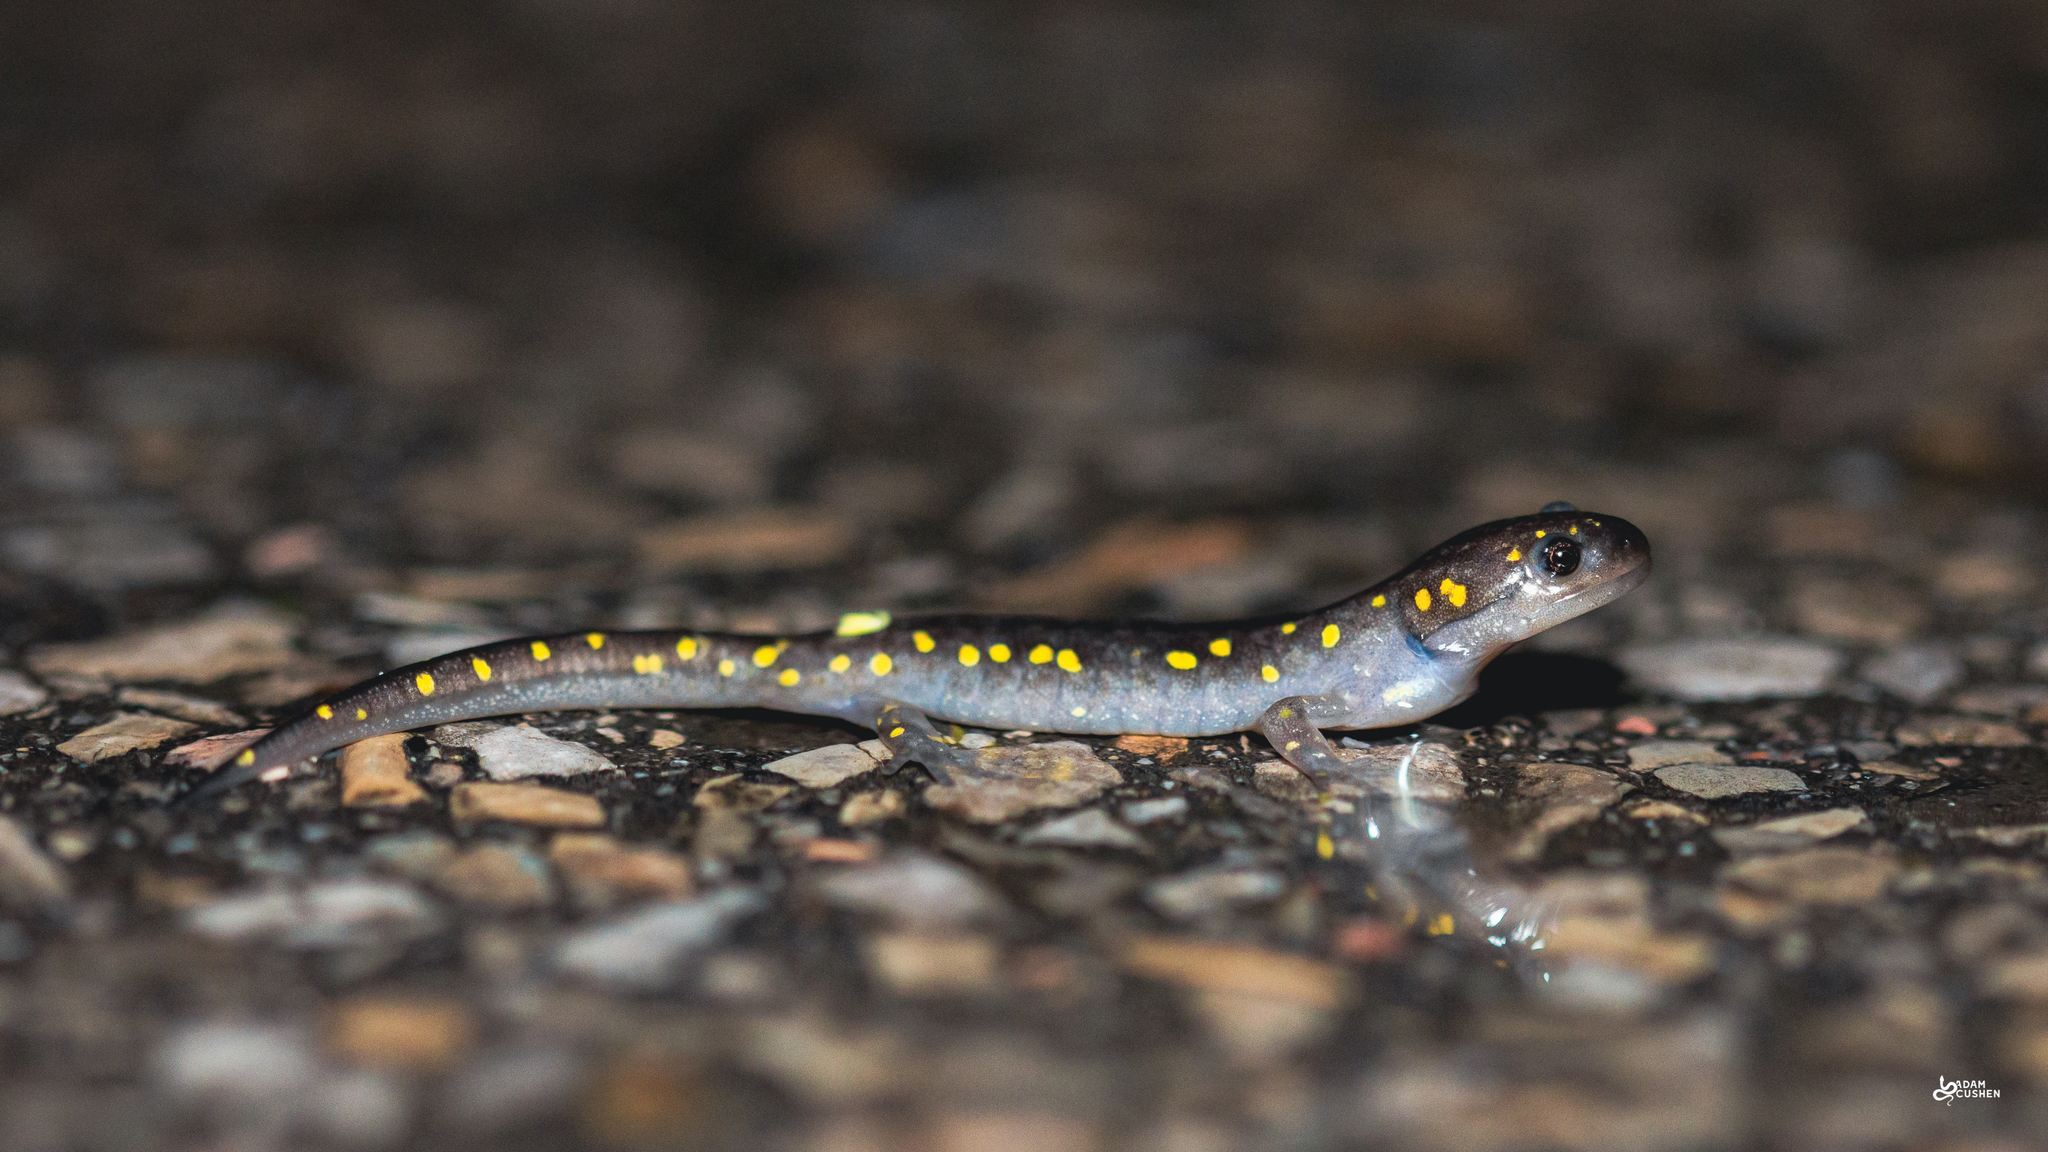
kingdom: Animalia
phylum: Chordata
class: Amphibia
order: Caudata
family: Ambystomatidae
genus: Ambystoma
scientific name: Ambystoma maculatum
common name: Spotted salamander
